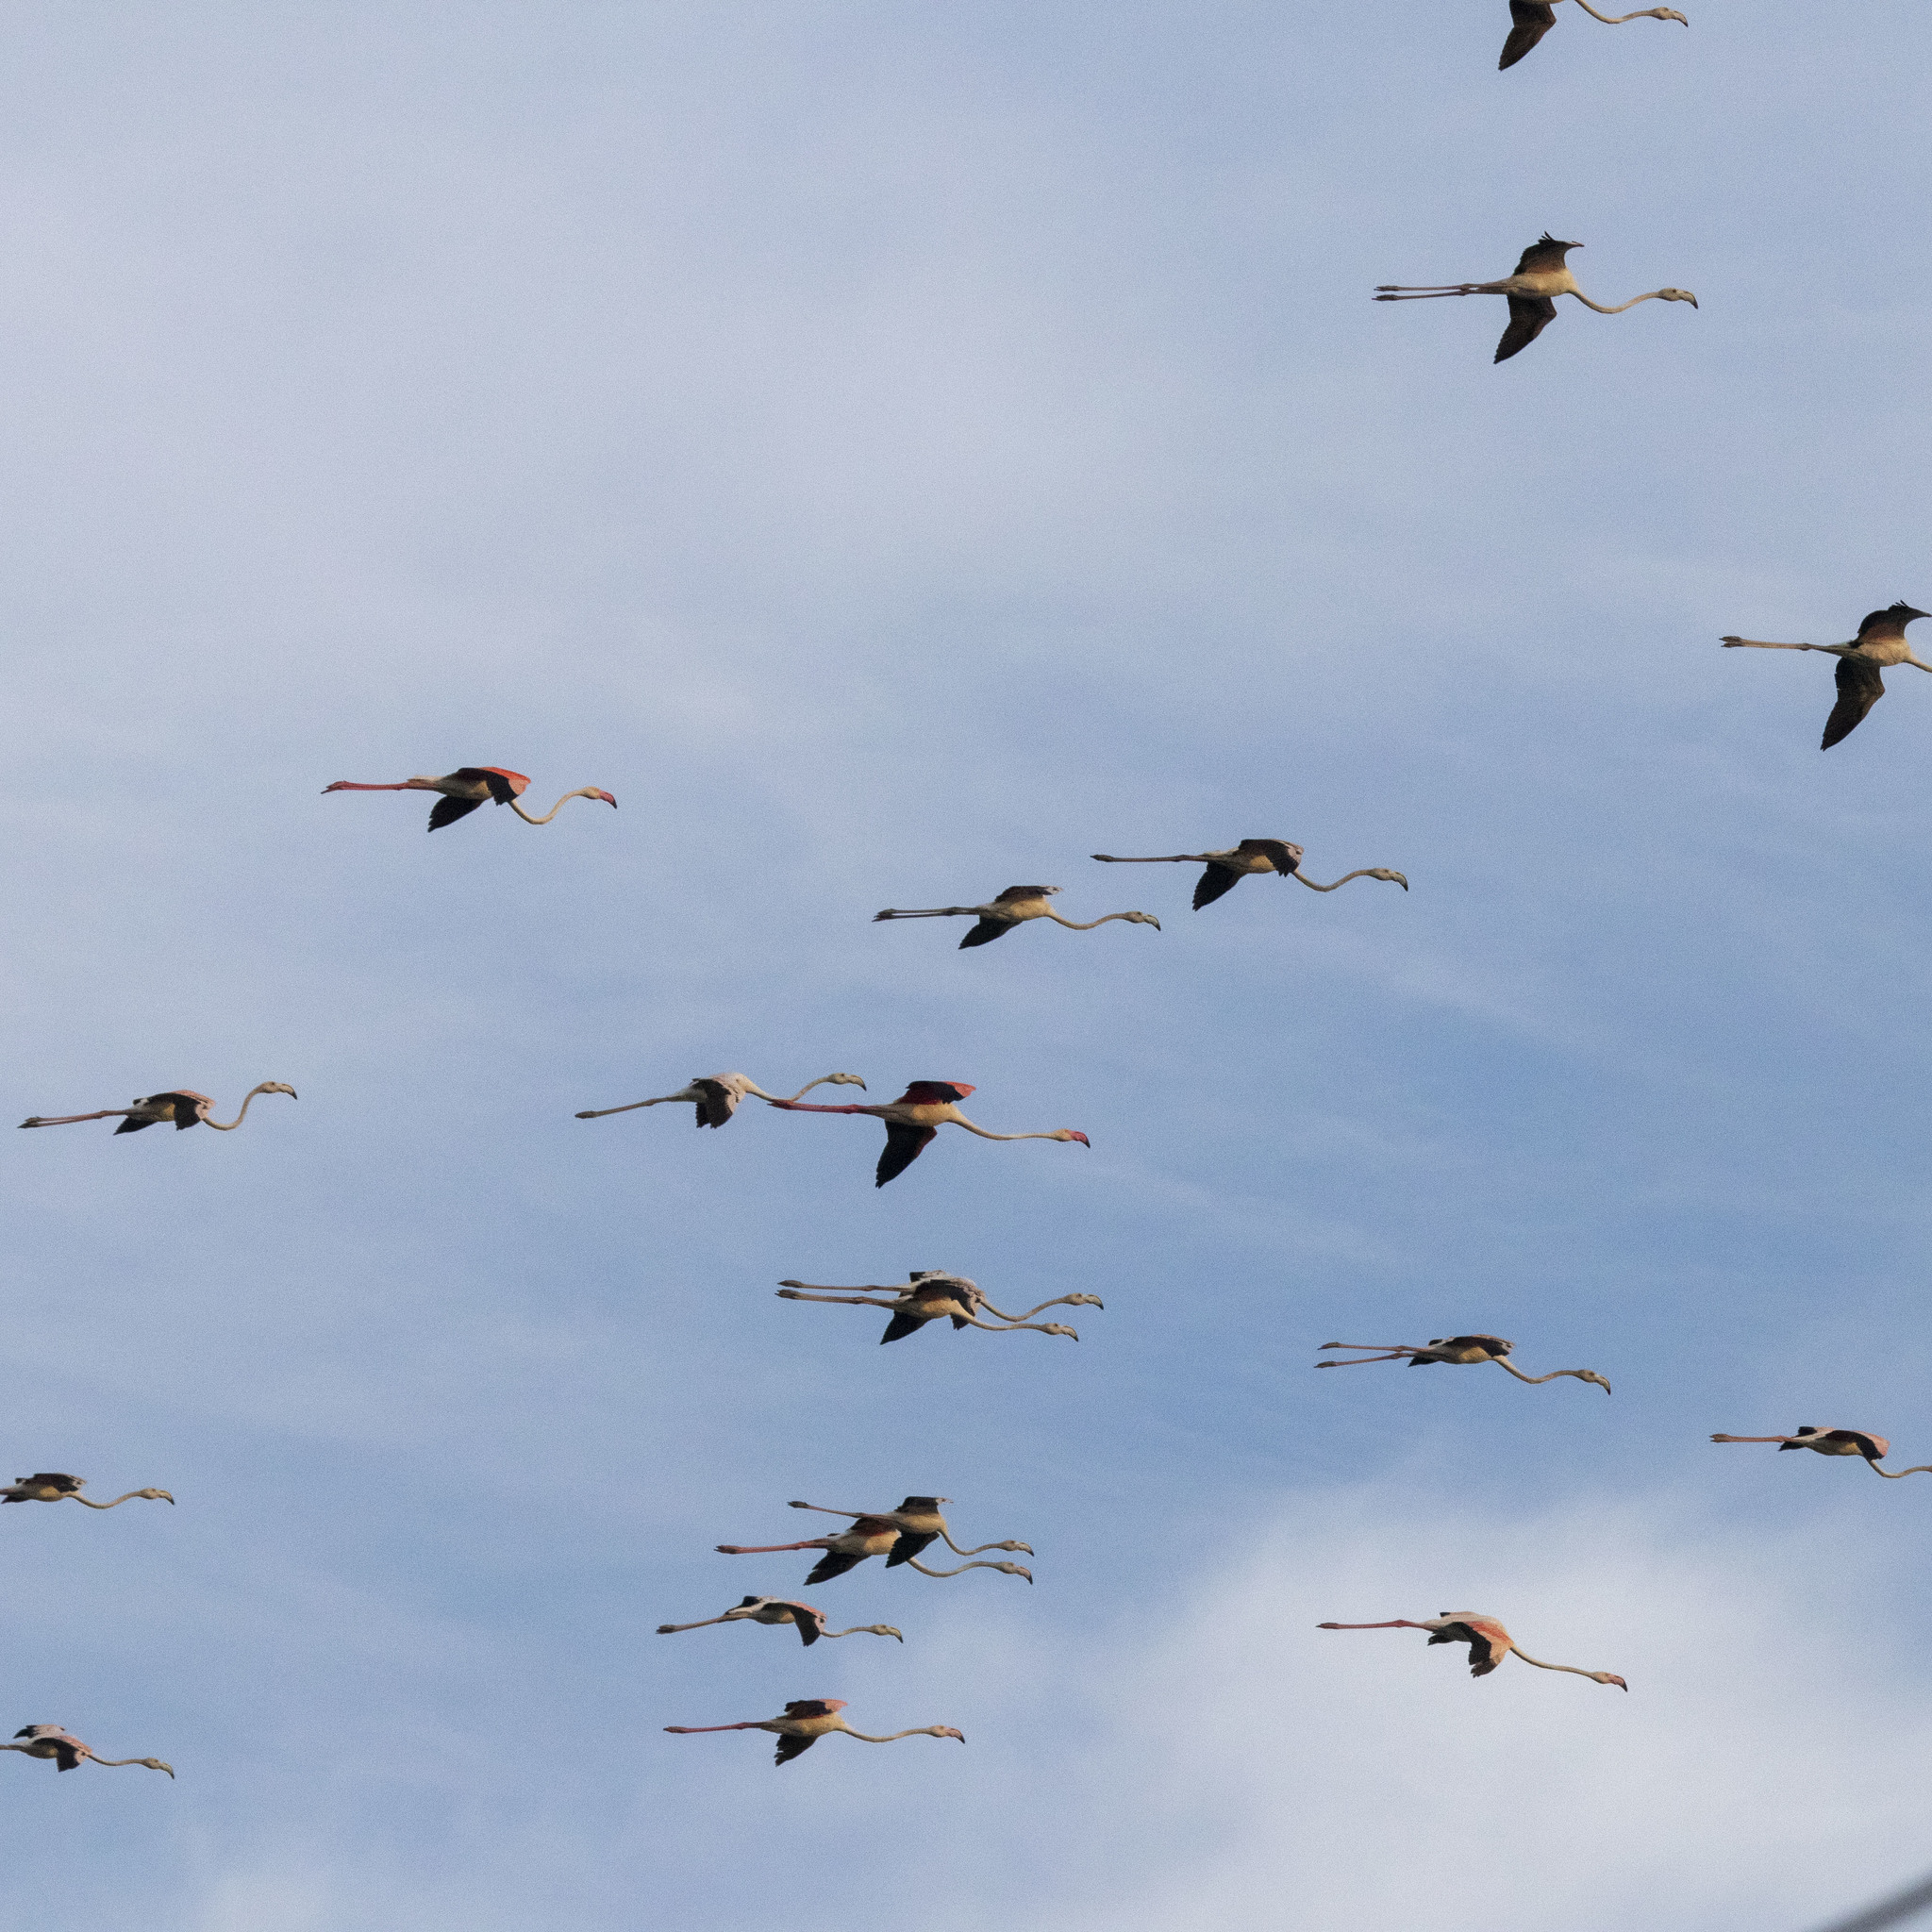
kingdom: Animalia
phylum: Chordata
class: Aves
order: Phoenicopteriformes
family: Phoenicopteridae
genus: Phoenicopterus
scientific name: Phoenicopterus roseus
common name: Greater flamingo
